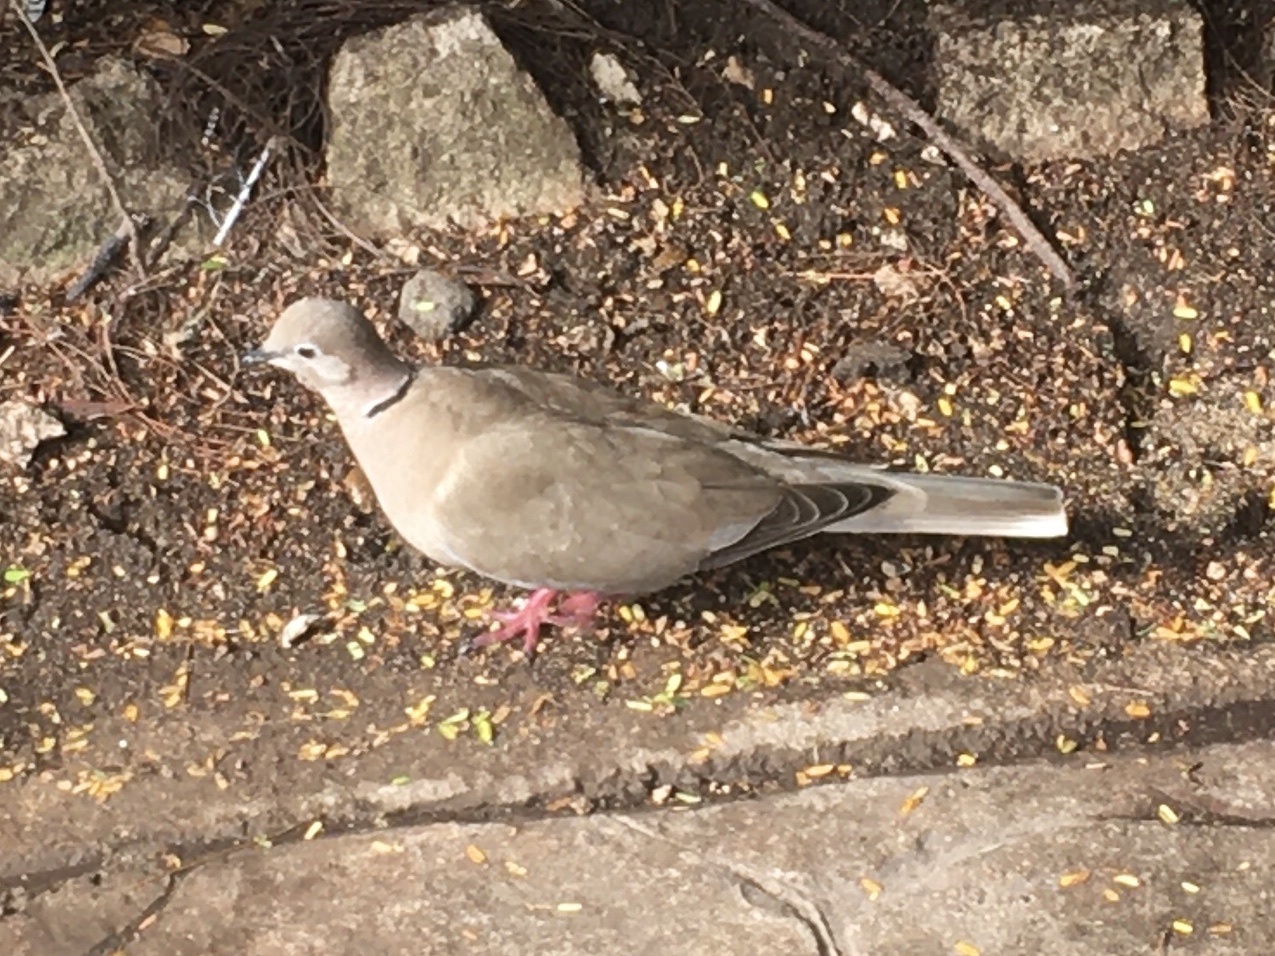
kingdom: Animalia
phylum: Chordata
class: Aves
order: Columbiformes
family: Columbidae
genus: Streptopelia
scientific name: Streptopelia decaocto
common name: Eurasian collared dove
